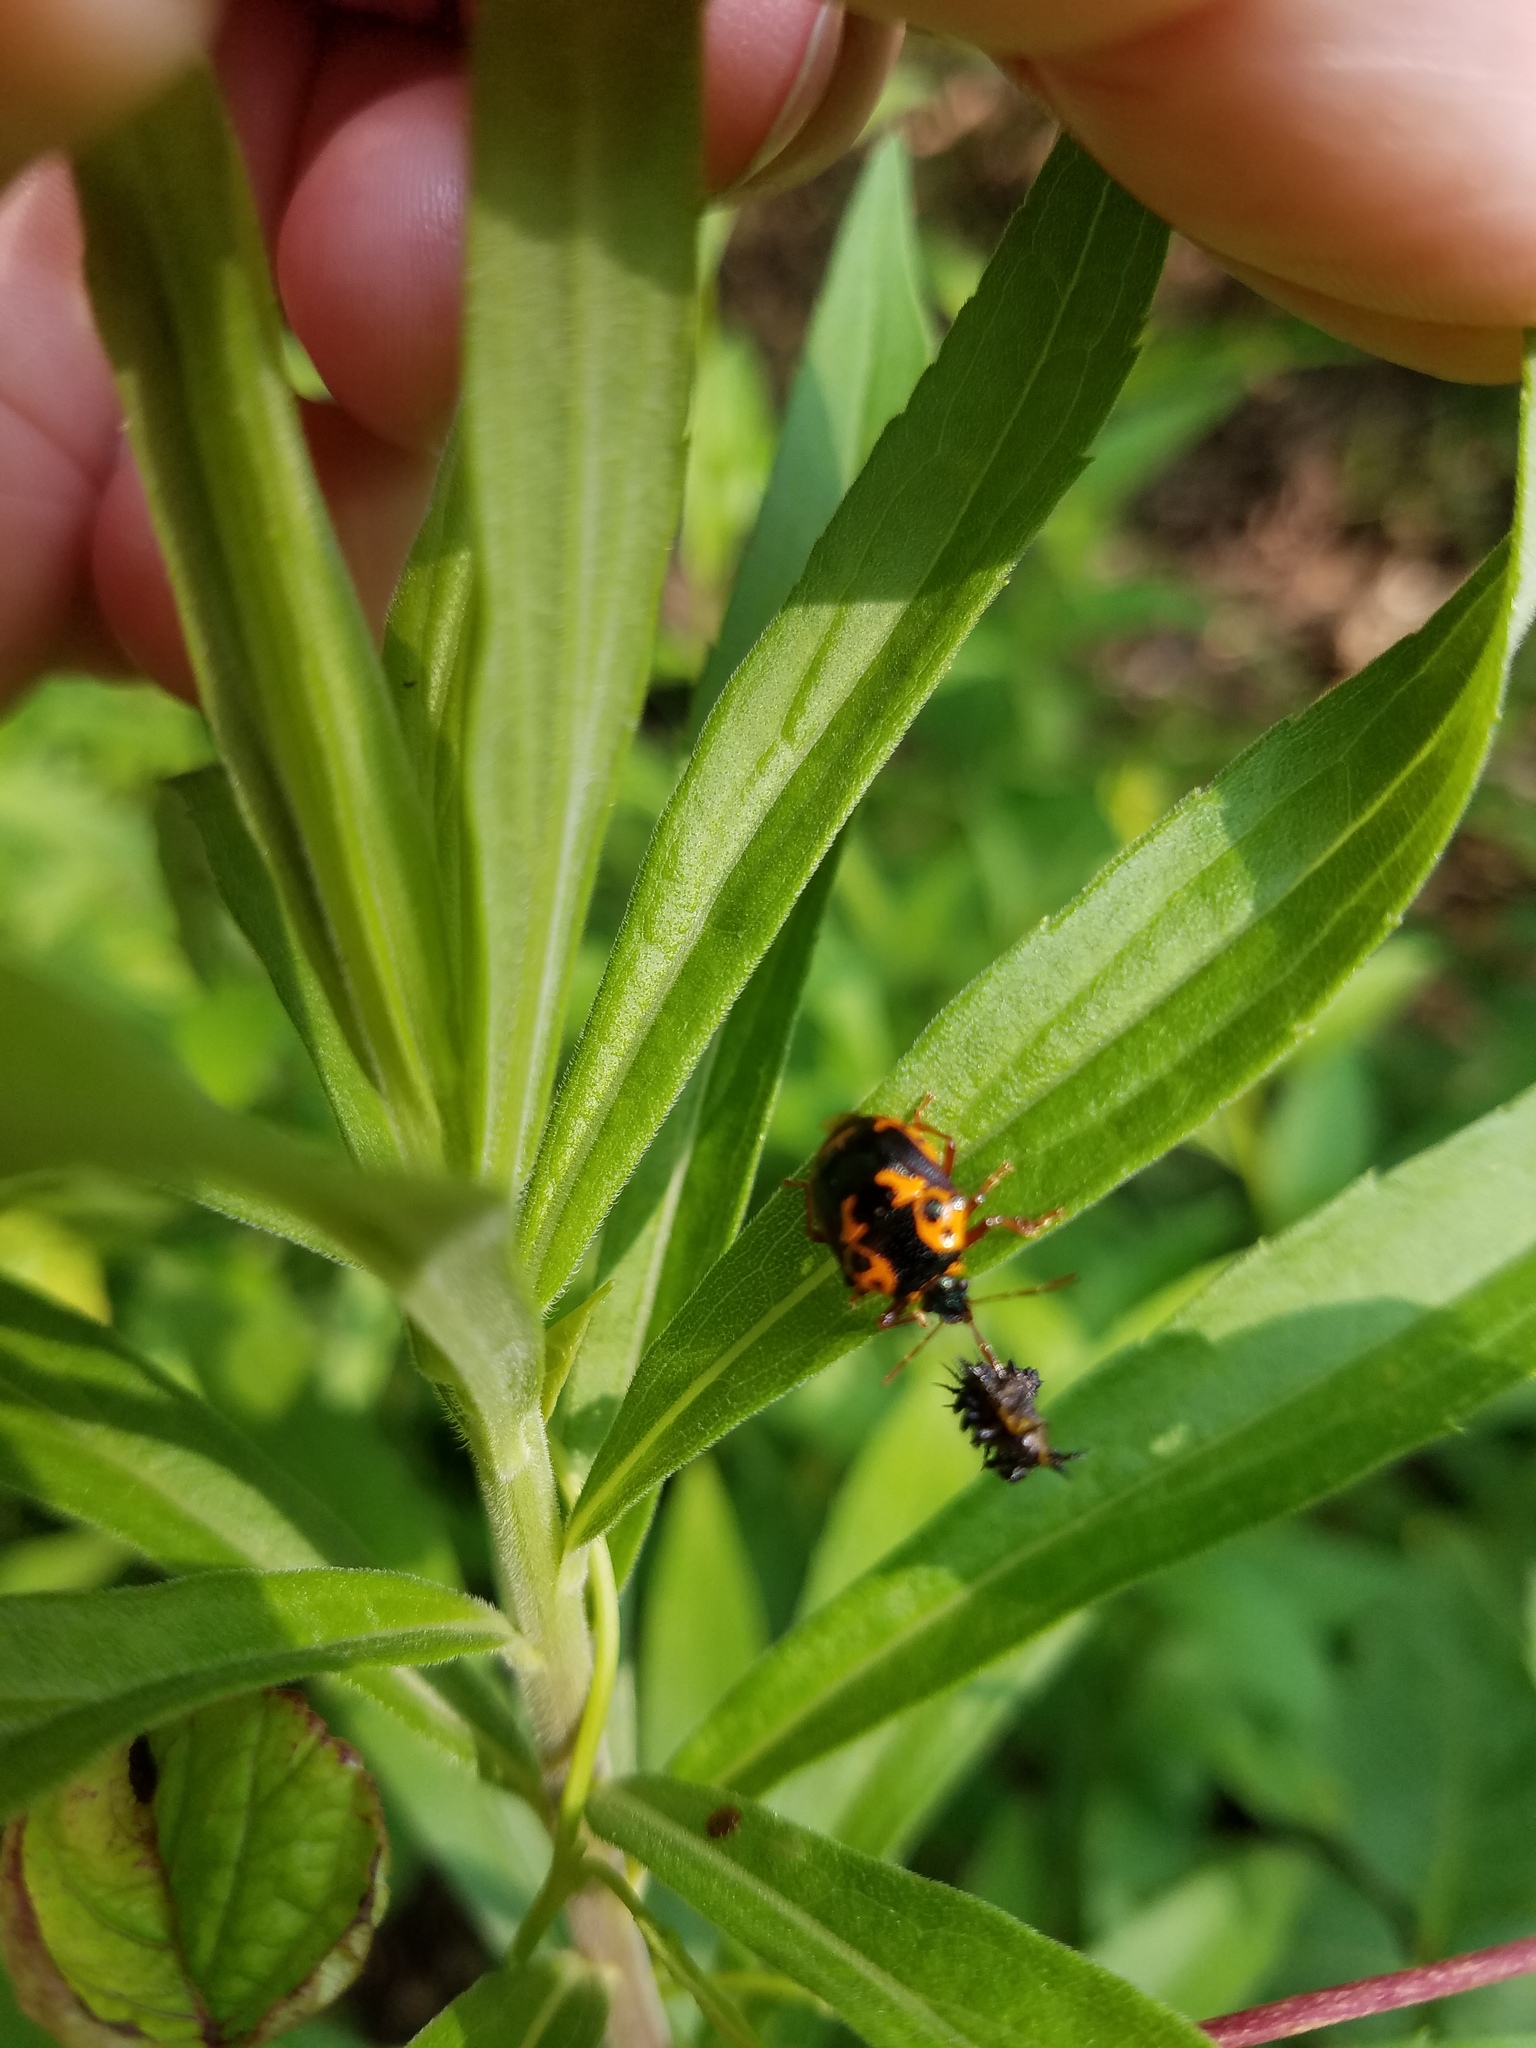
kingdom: Animalia
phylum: Arthropoda
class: Insecta
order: Hemiptera
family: Pentatomidae
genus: Stiretrus
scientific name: Stiretrus anchorago
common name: Anchor stink bug
